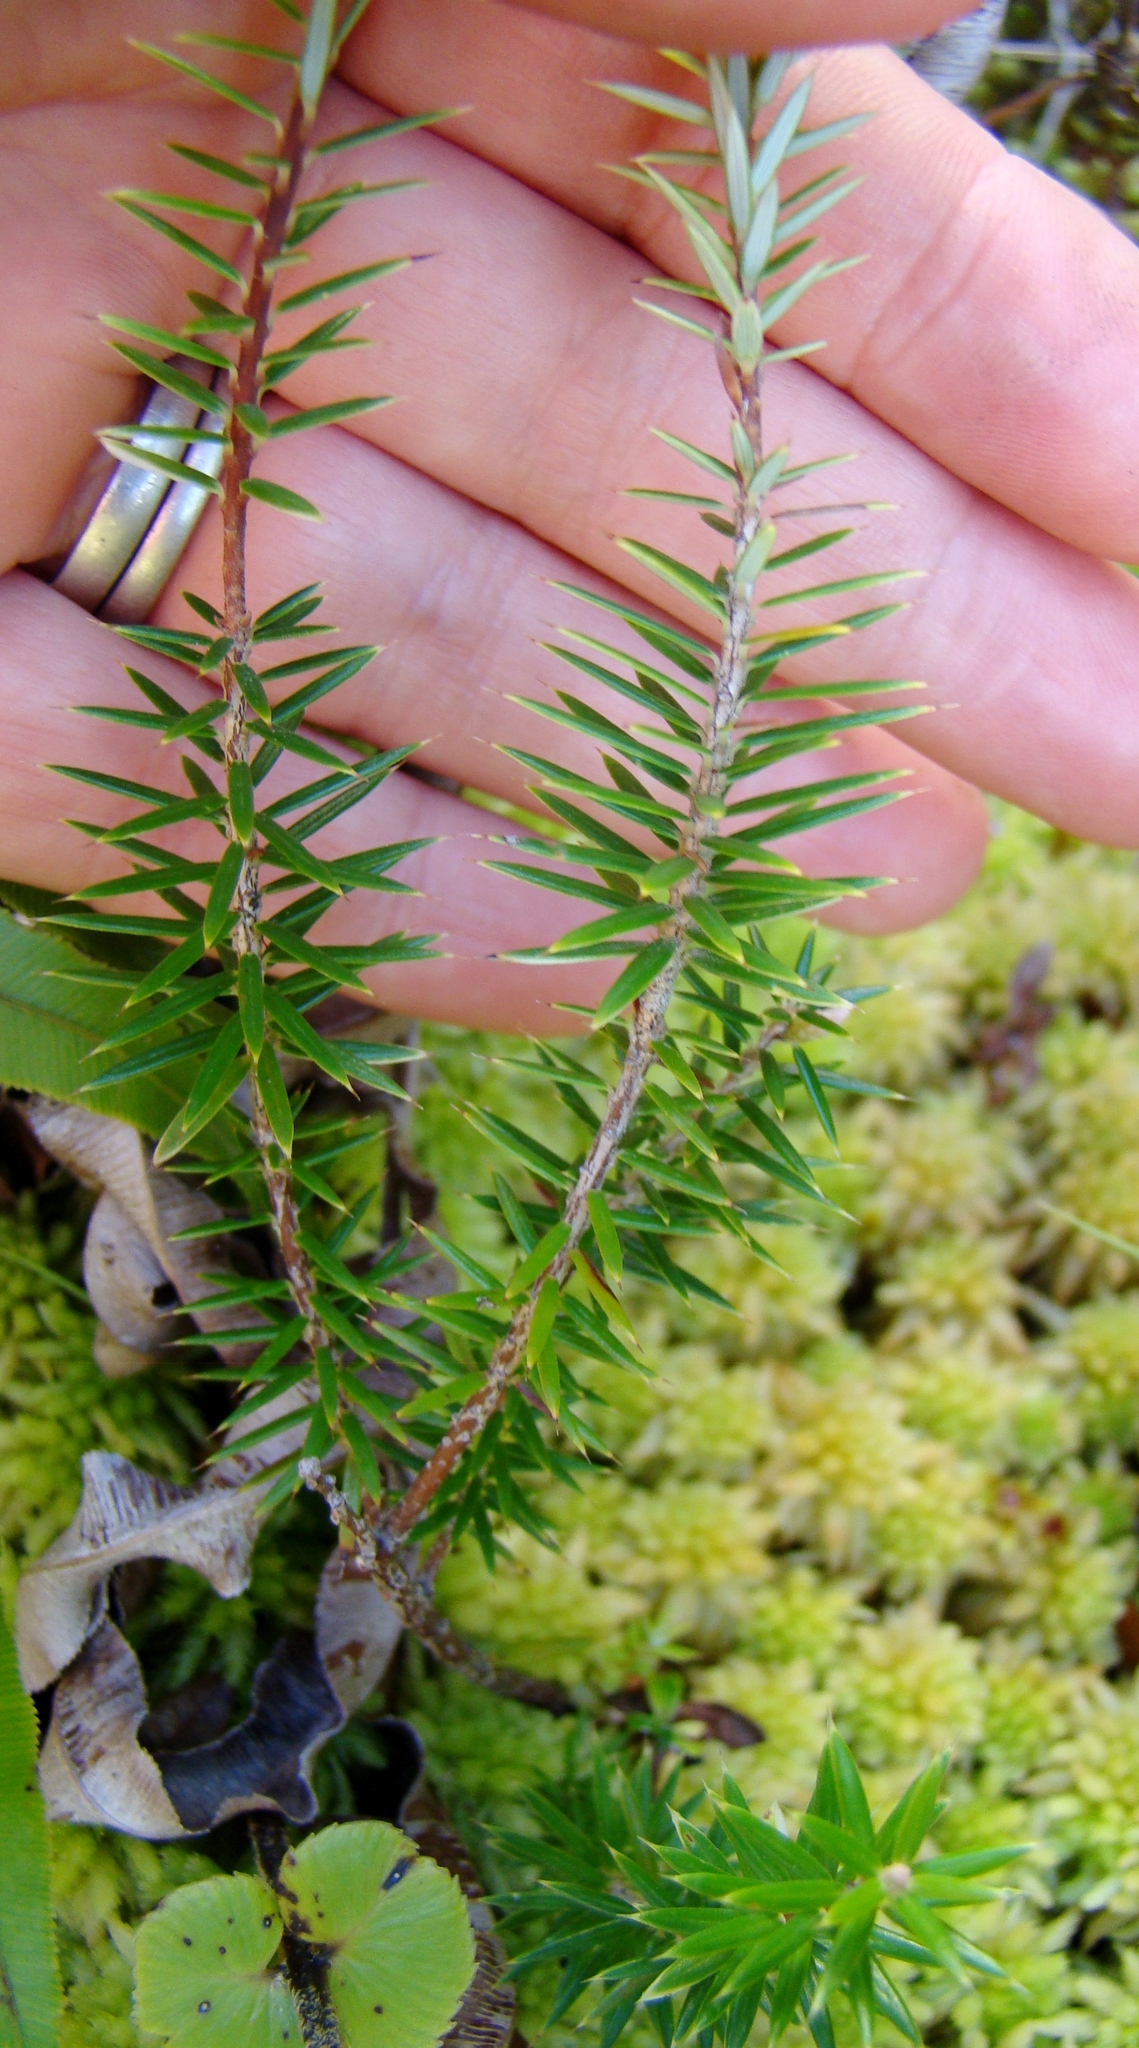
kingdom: Plantae
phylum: Tracheophyta
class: Magnoliopsida
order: Ericales
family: Ericaceae
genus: Leptecophylla
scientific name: Leptecophylla juniperina
